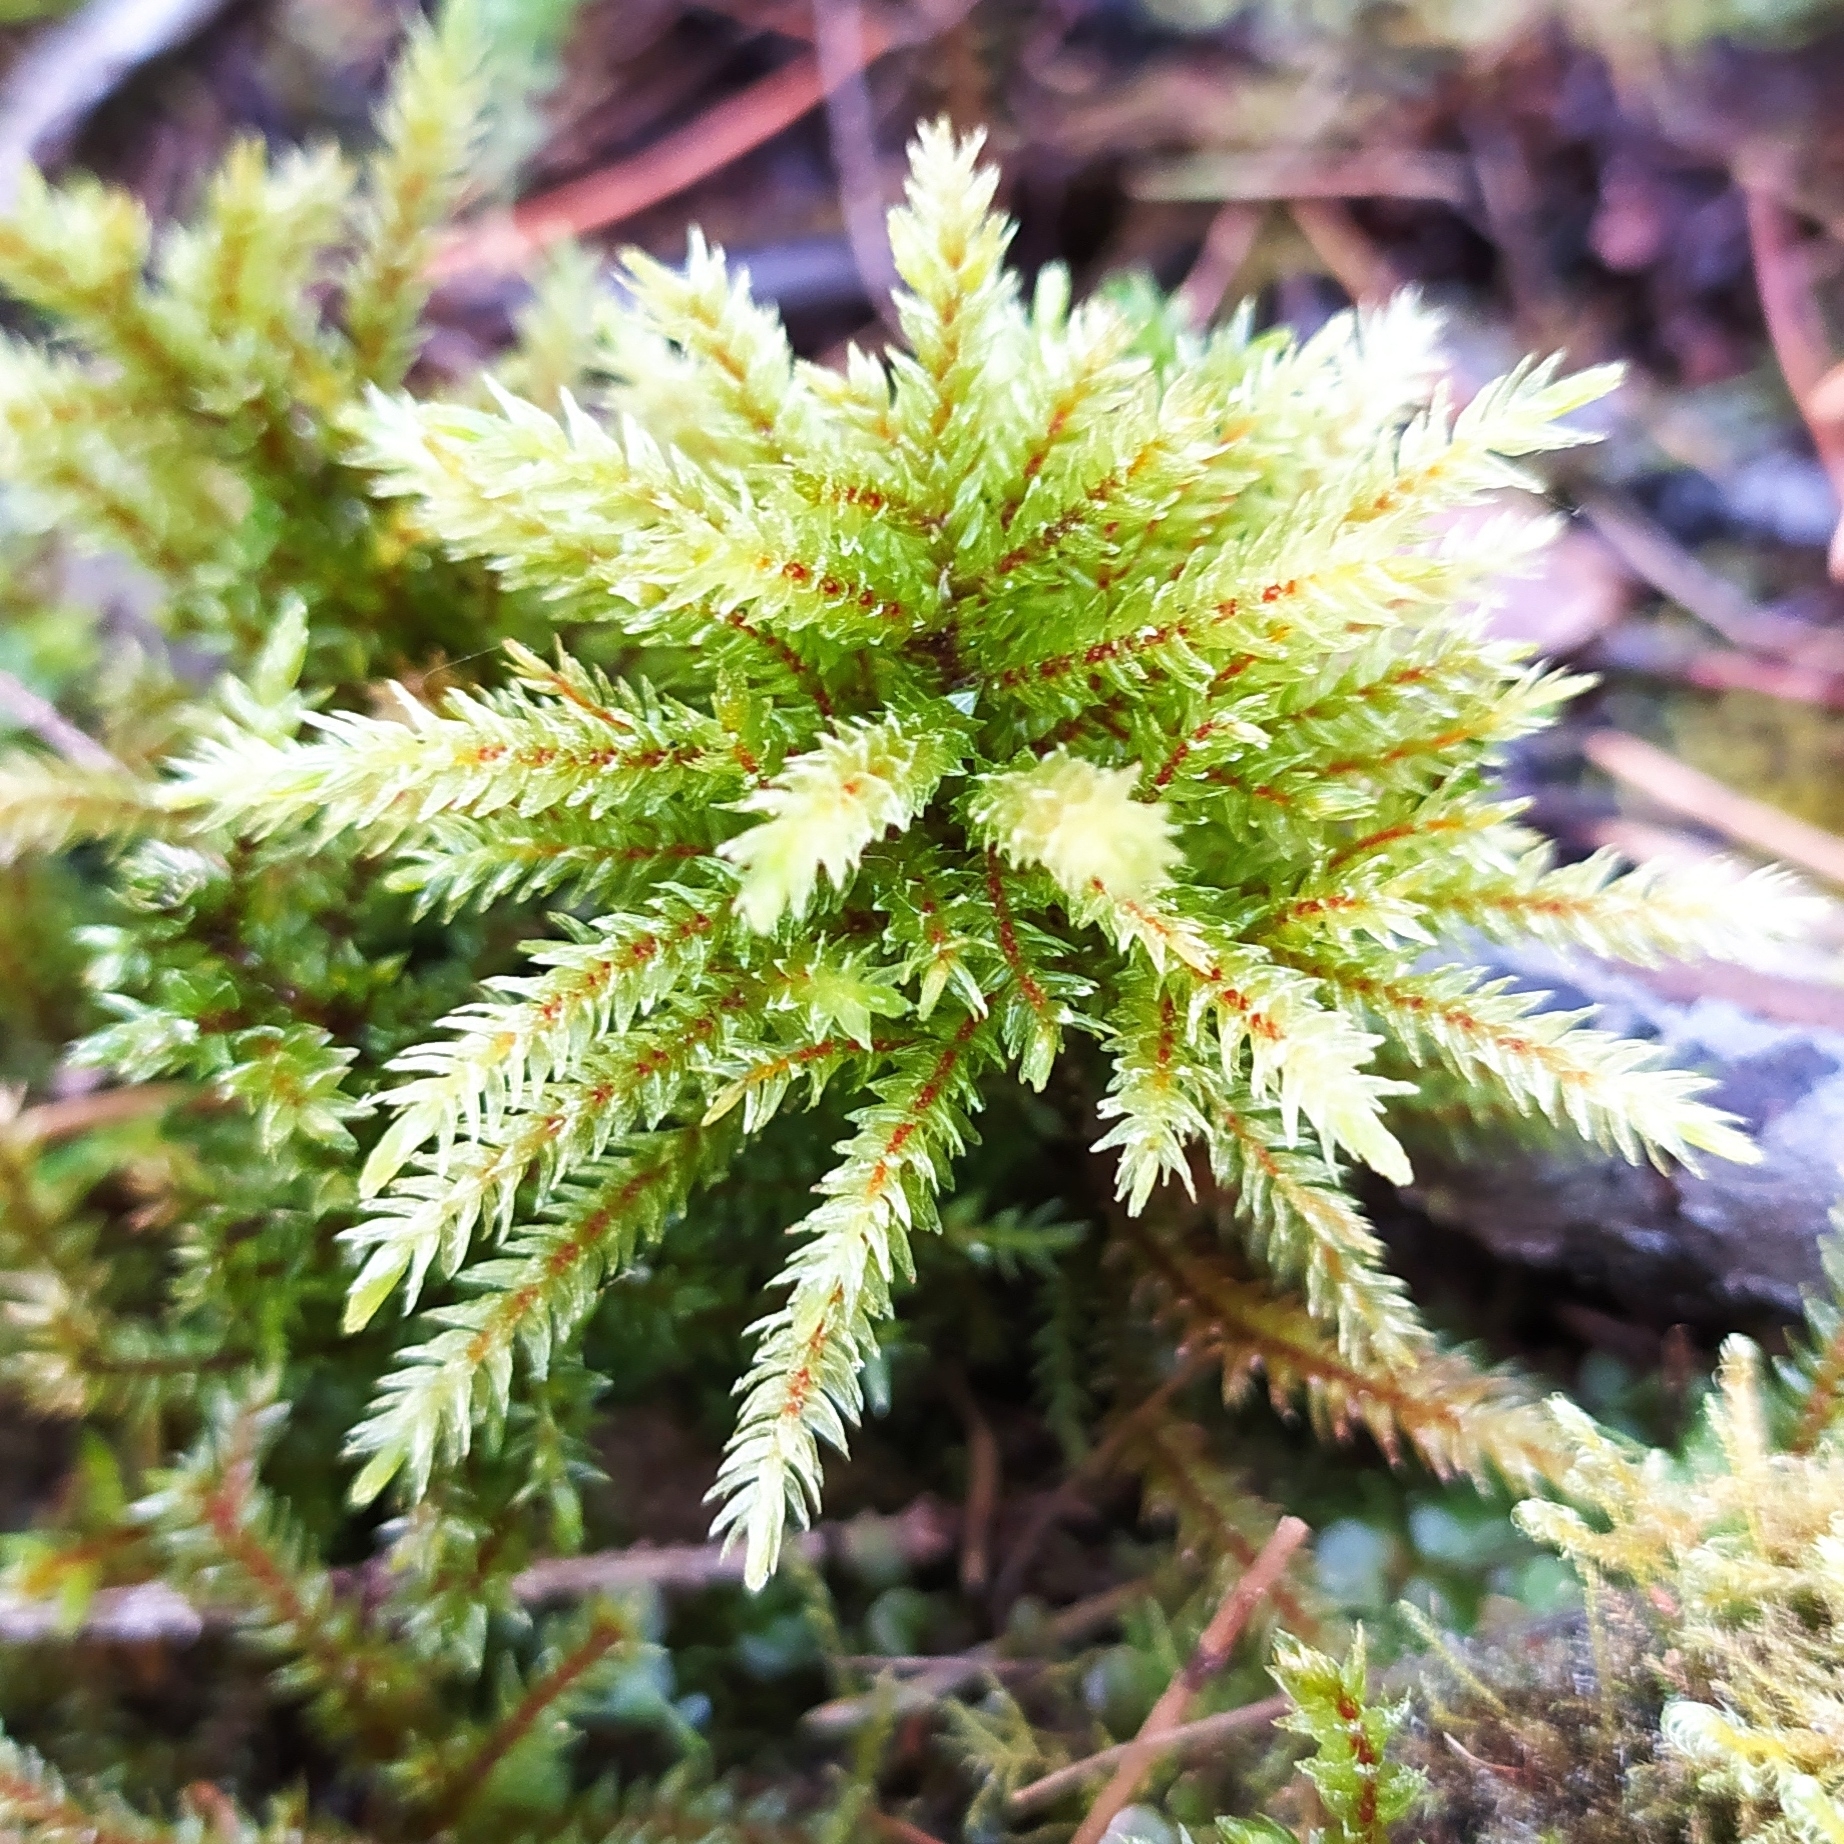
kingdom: Plantae
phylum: Bryophyta
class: Bryopsida
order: Hypnales
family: Climaciaceae
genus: Climacium
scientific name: Climacium dendroides
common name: Northern tree moss
